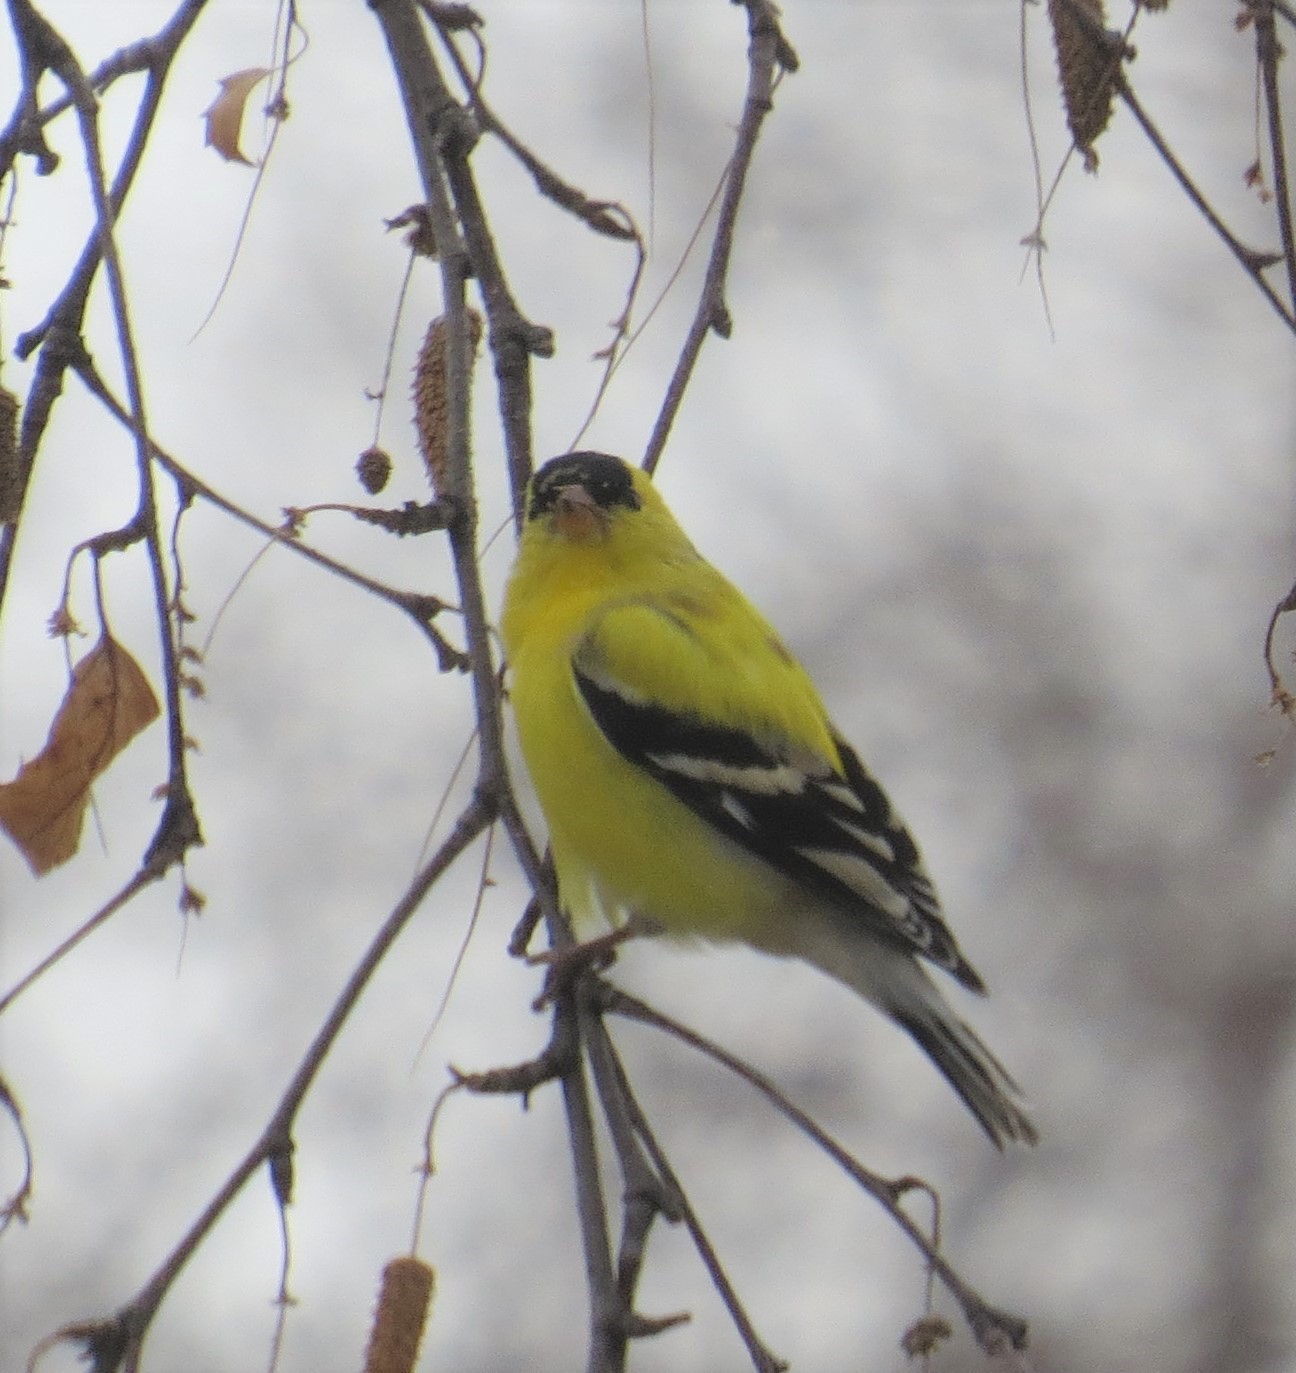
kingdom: Animalia
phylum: Chordata
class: Aves
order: Passeriformes
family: Fringillidae
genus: Spinus
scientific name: Spinus tristis
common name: American goldfinch
